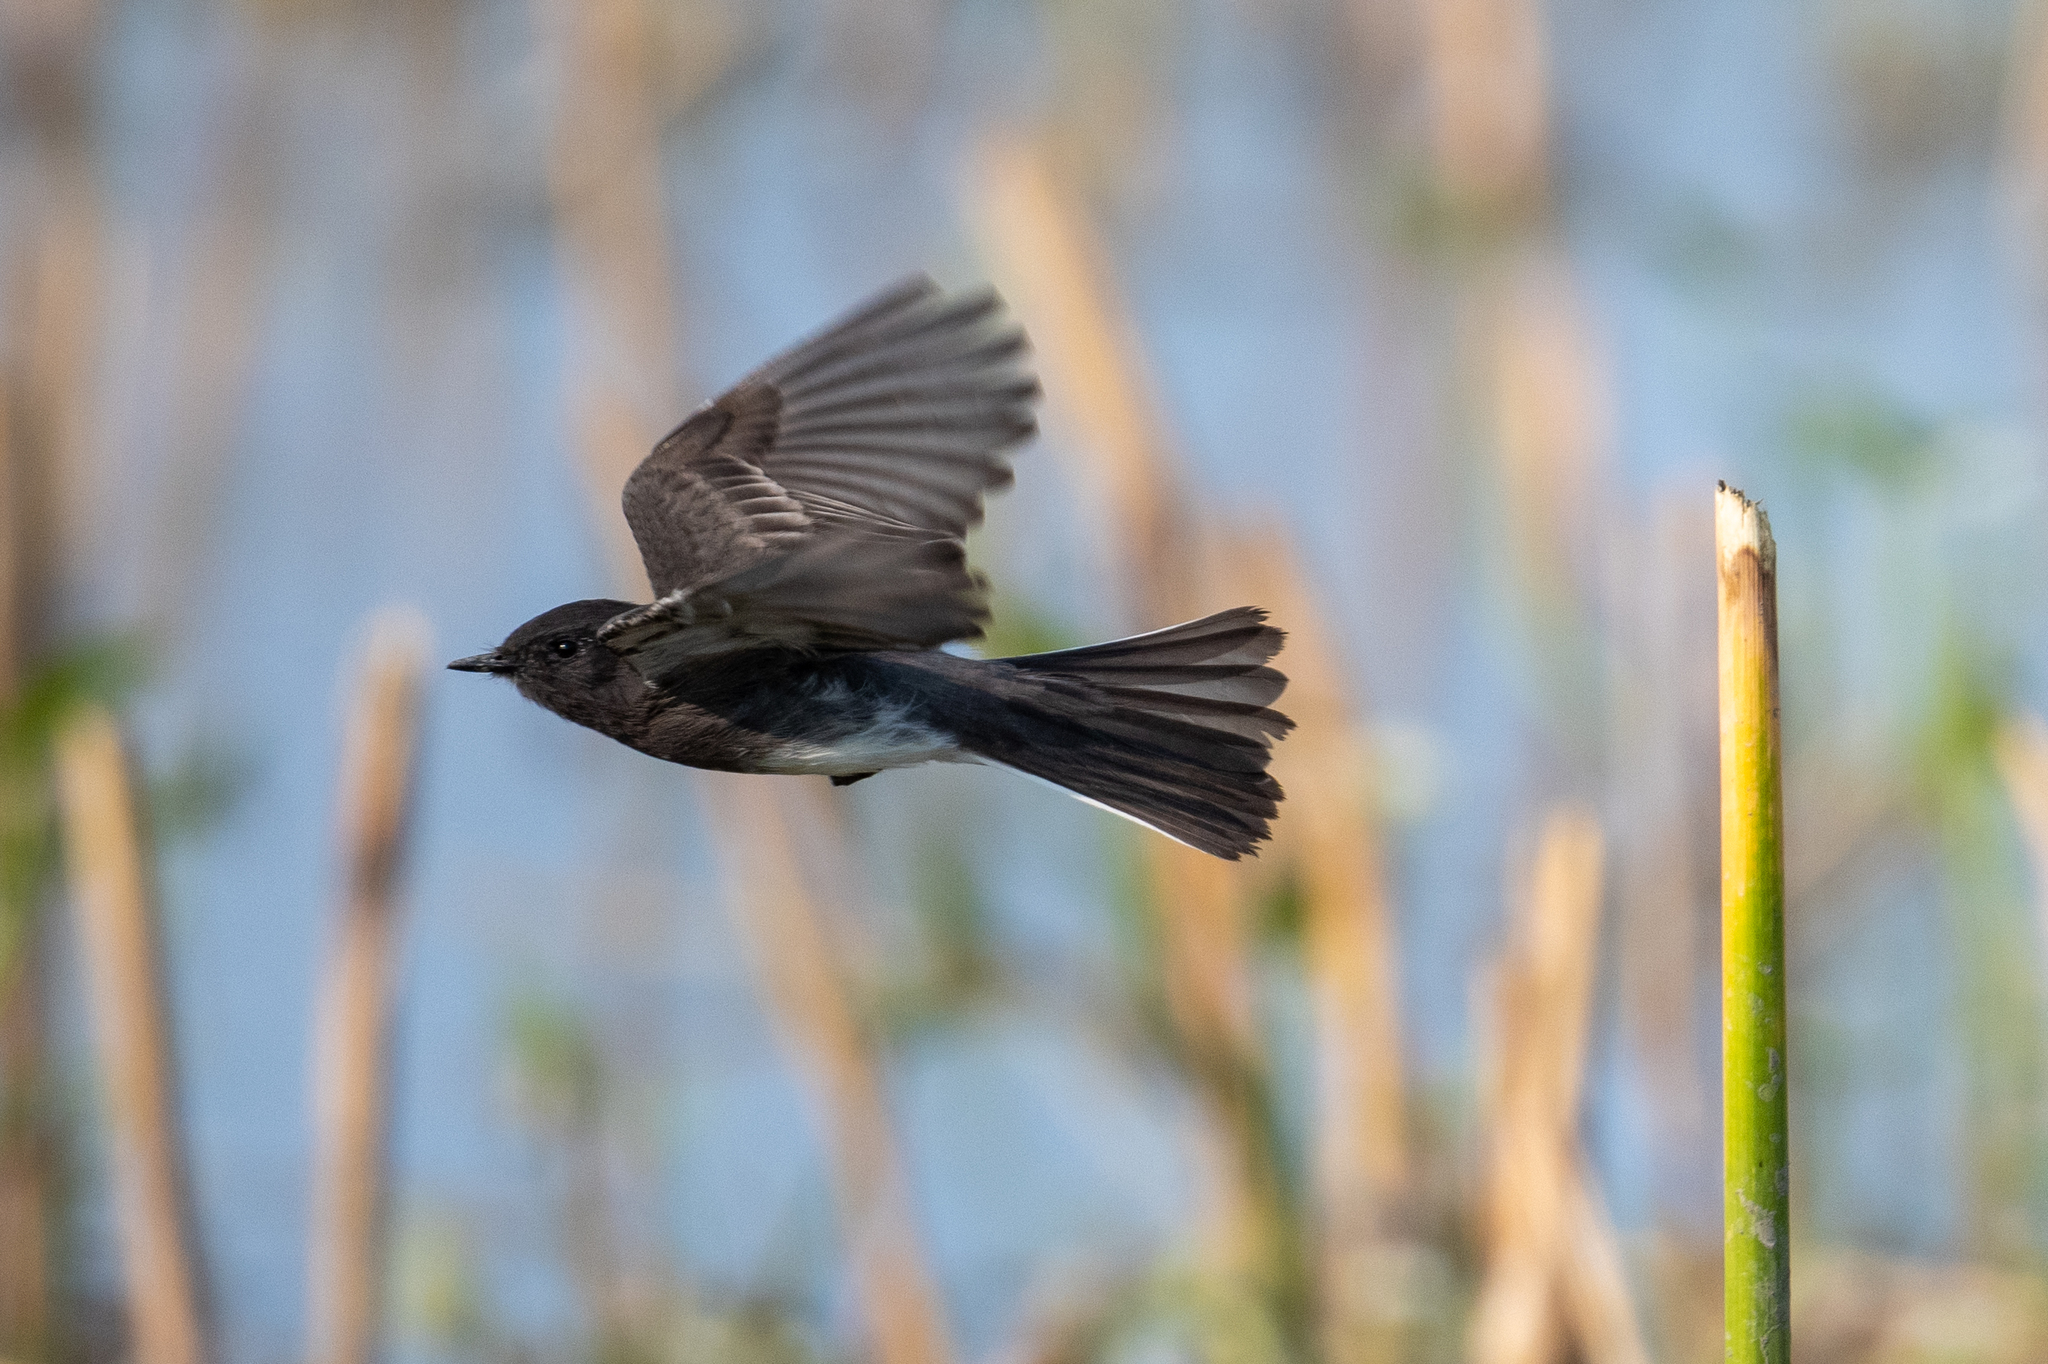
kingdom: Animalia
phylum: Chordata
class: Aves
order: Passeriformes
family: Tyrannidae
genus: Sayornis
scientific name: Sayornis nigricans
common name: Black phoebe
